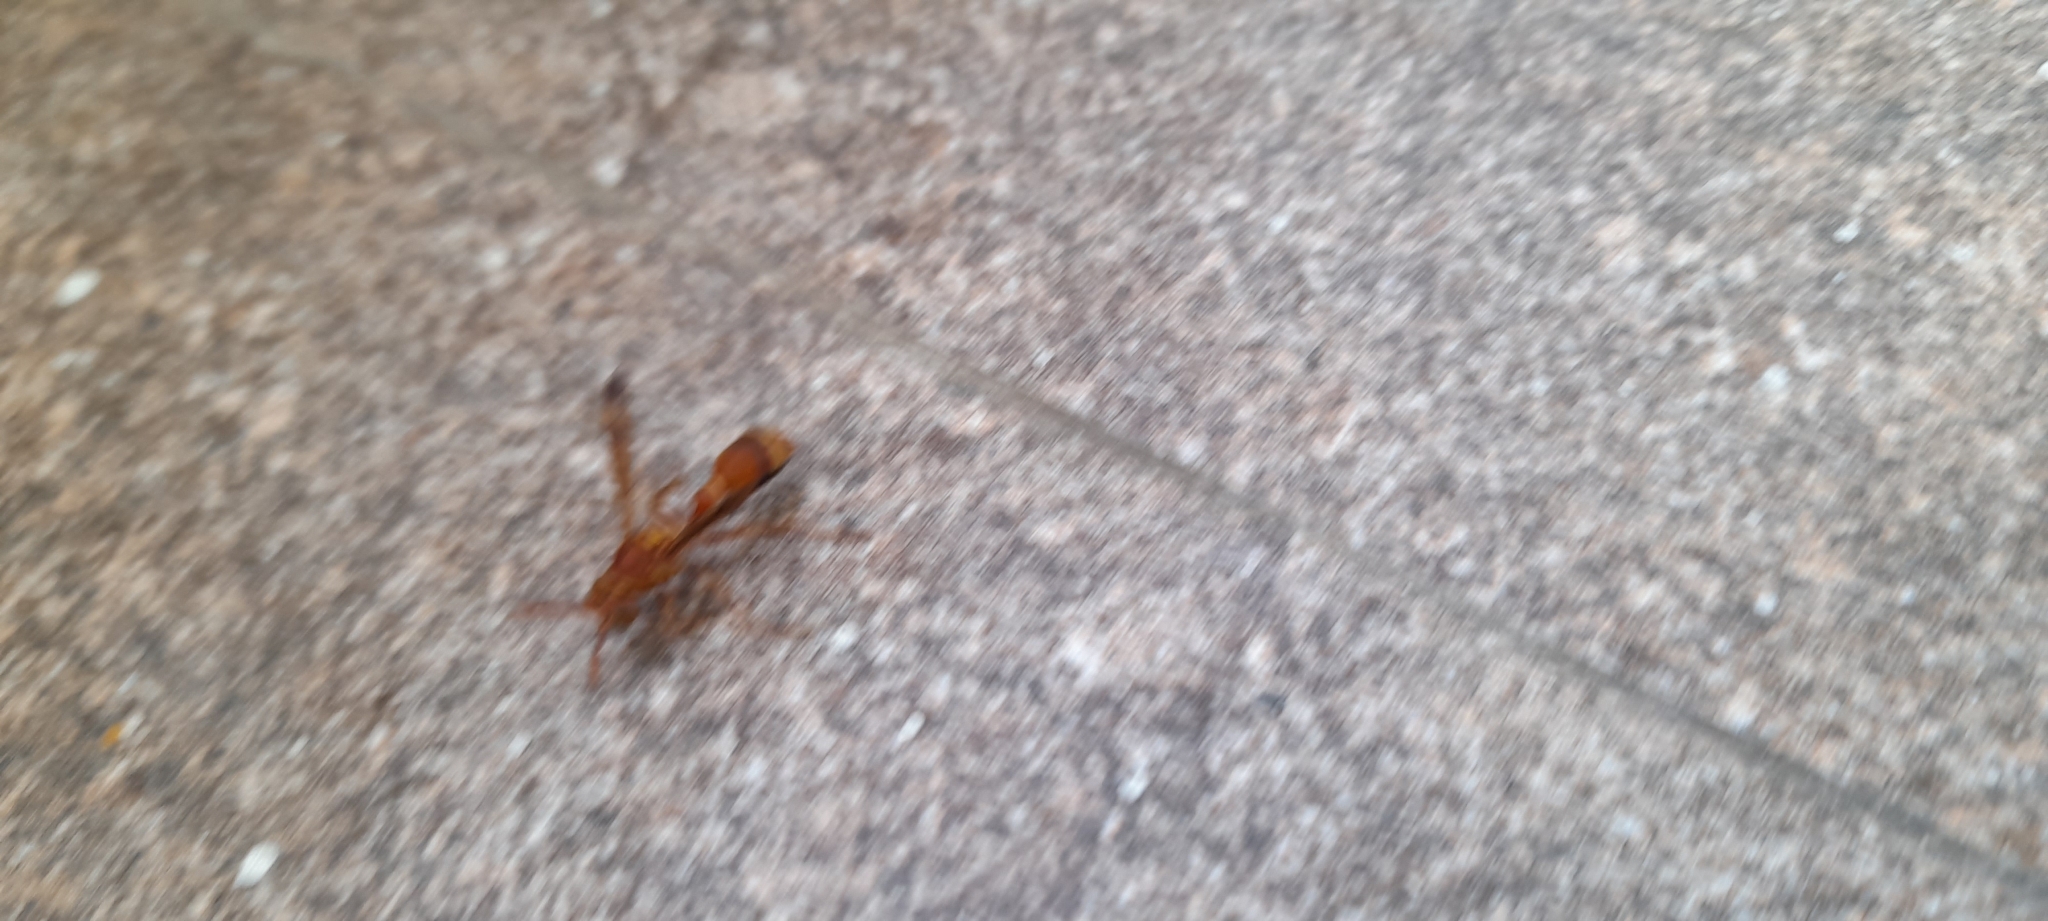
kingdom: Animalia
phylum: Arthropoda
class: Insecta
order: Hymenoptera
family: Vespidae
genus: Ropalidia
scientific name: Ropalidia marginata
